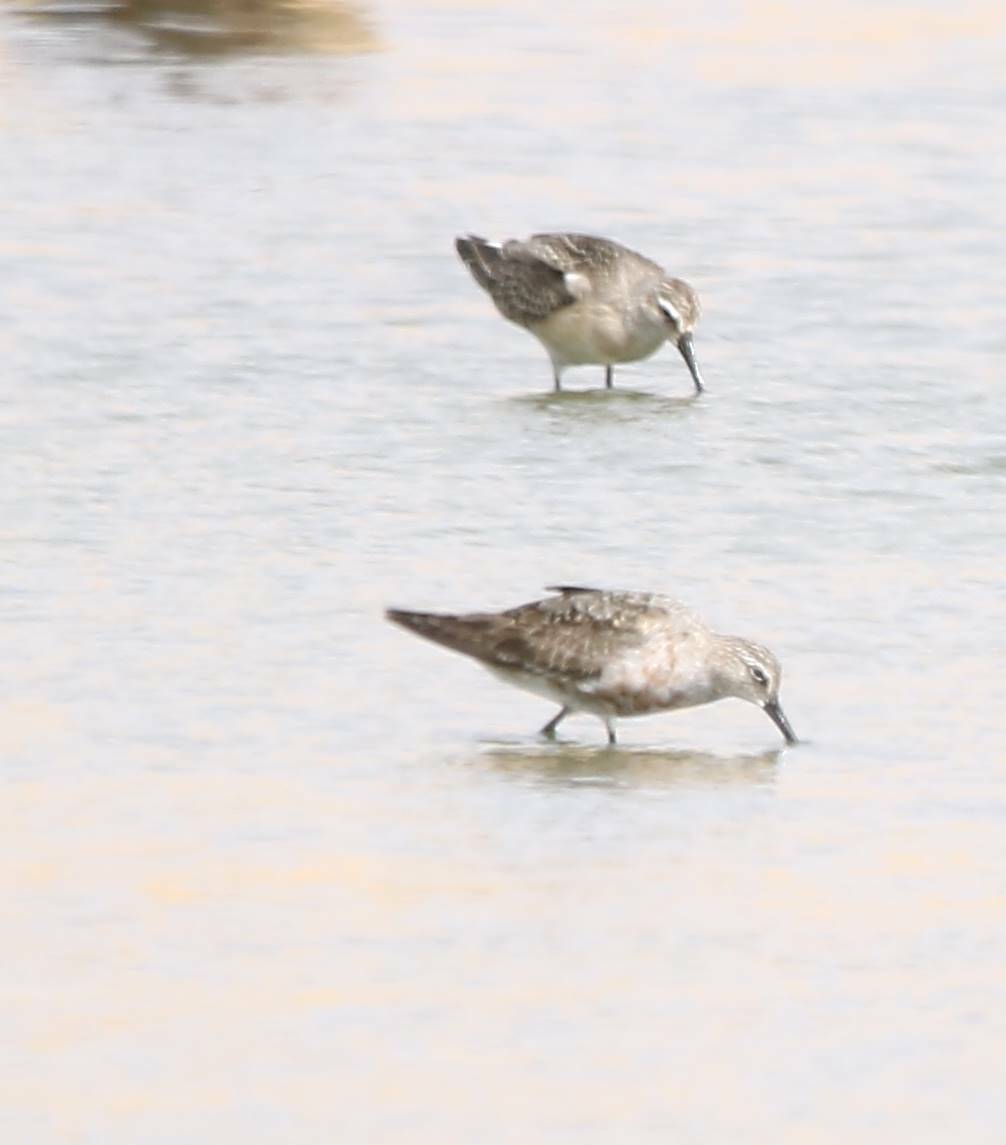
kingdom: Animalia
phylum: Chordata
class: Aves
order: Charadriiformes
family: Scolopacidae
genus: Calidris
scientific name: Calidris ferruginea
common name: Curlew sandpiper
